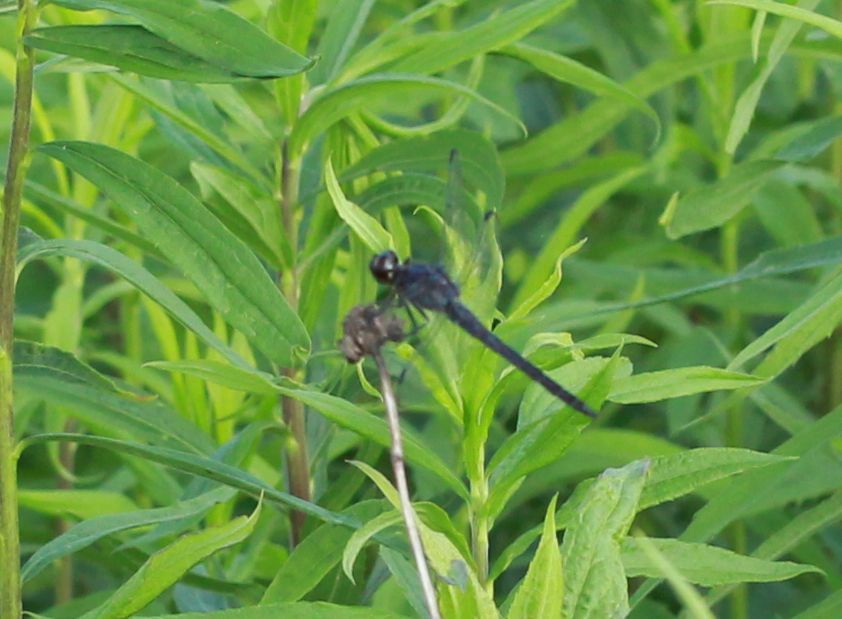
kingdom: Animalia
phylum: Arthropoda
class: Insecta
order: Odonata
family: Libellulidae
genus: Libellula
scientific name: Libellula incesta
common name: Slaty skimmer
